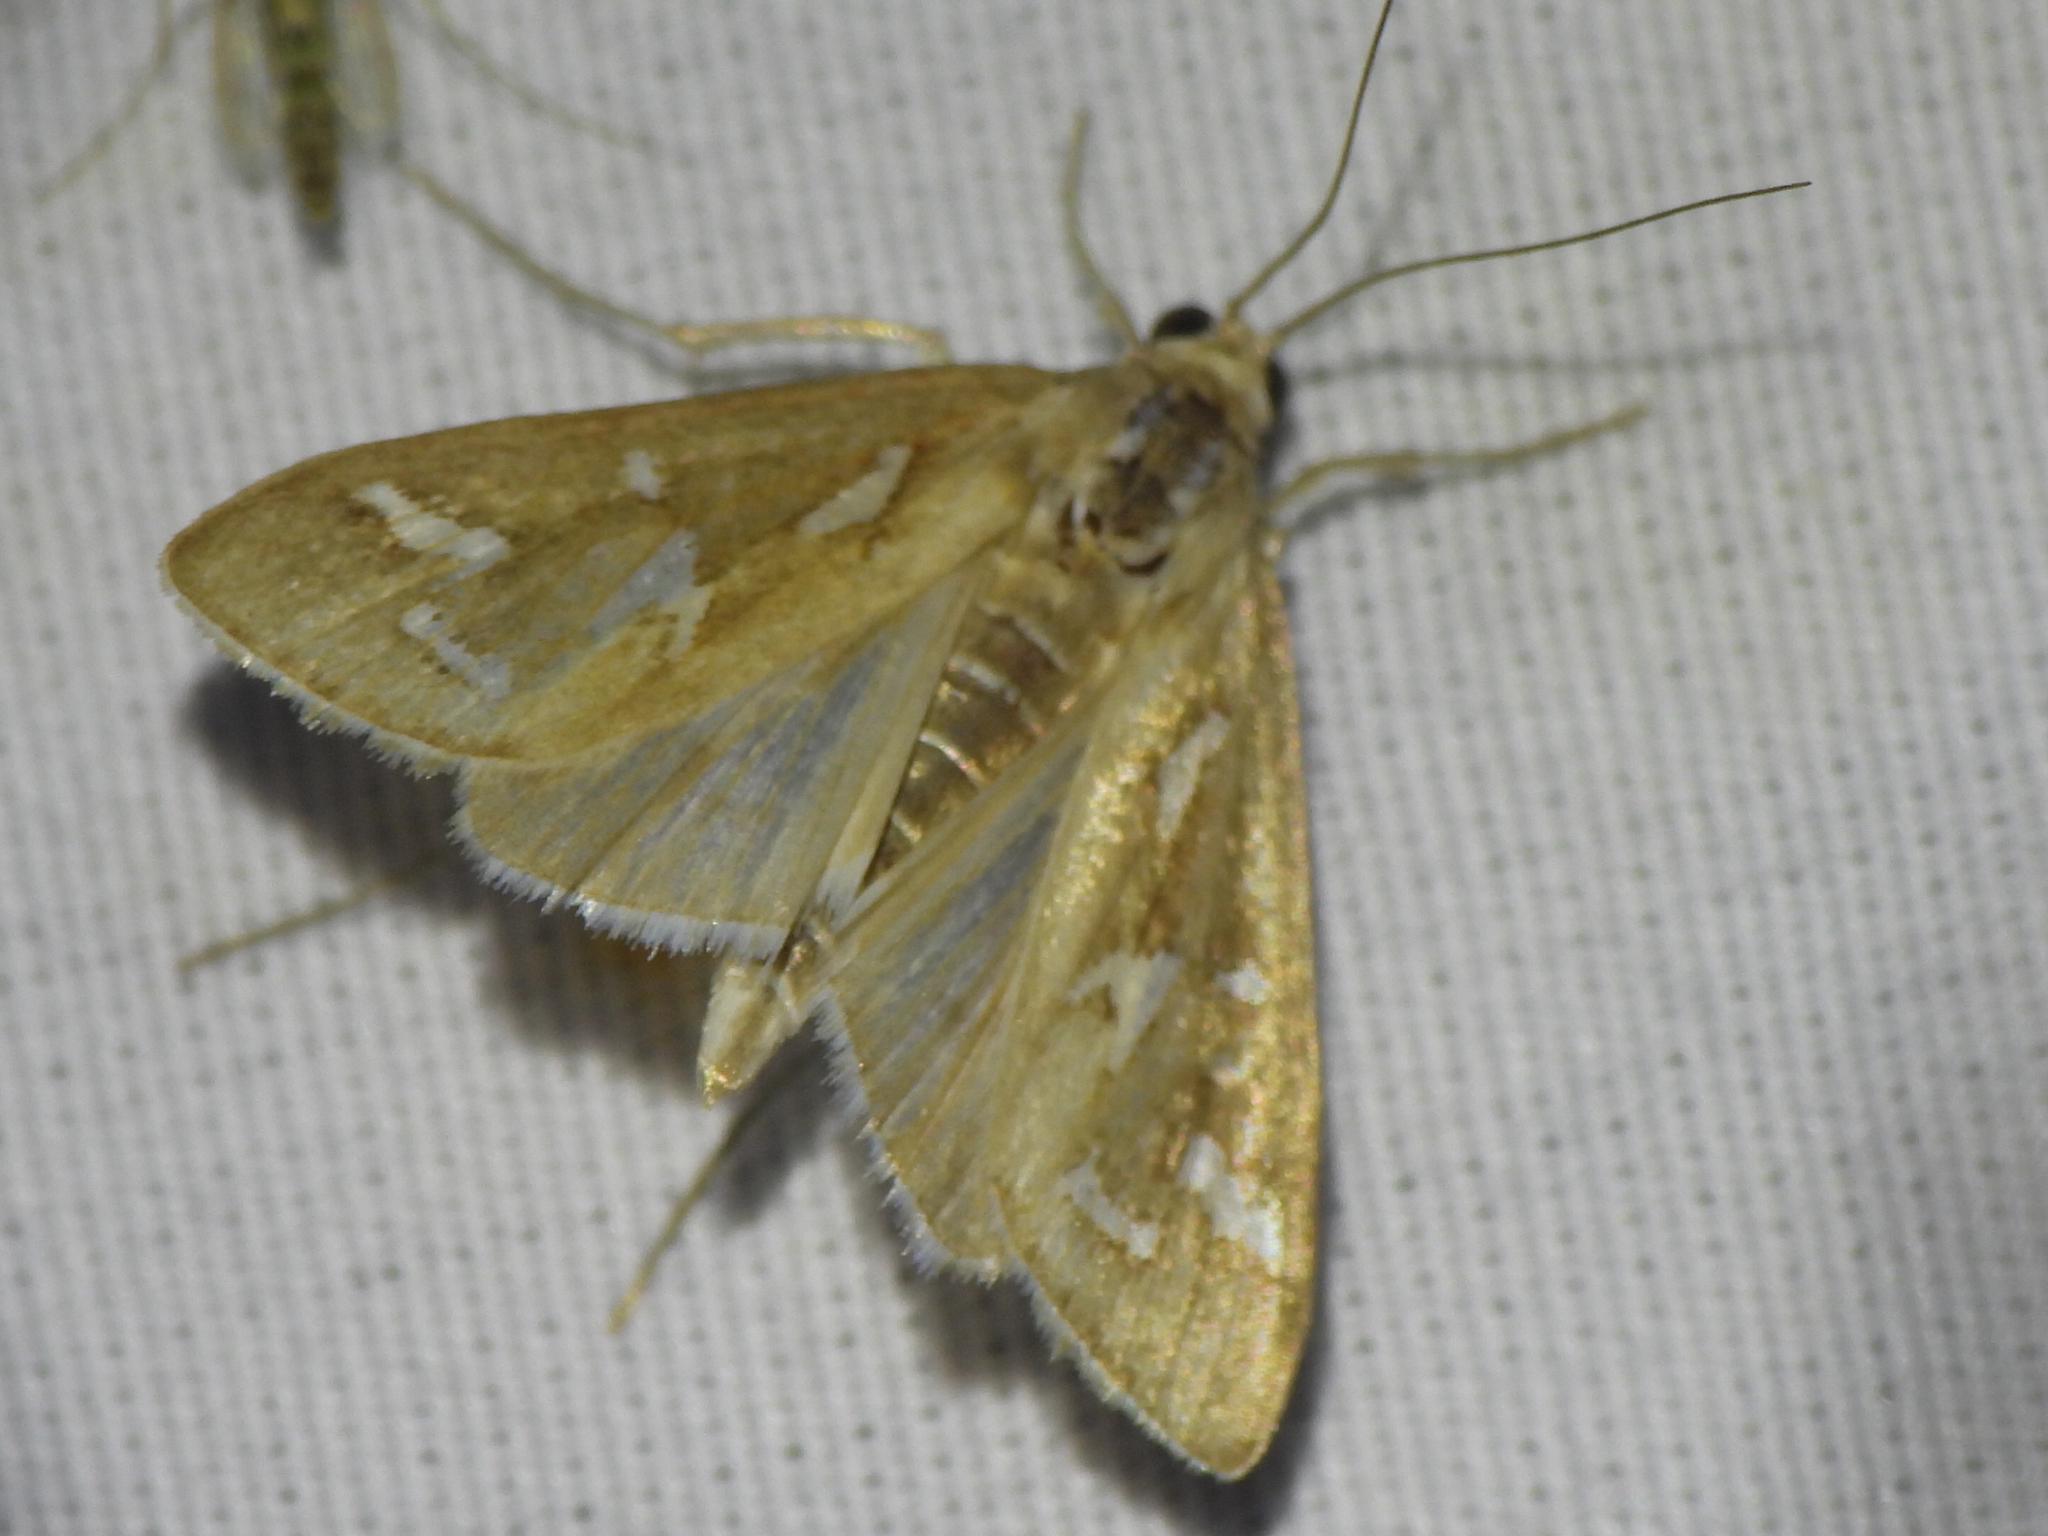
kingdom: Animalia
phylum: Arthropoda
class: Insecta
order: Lepidoptera
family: Crambidae
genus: Diastictis
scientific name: Diastictis fracturalis
